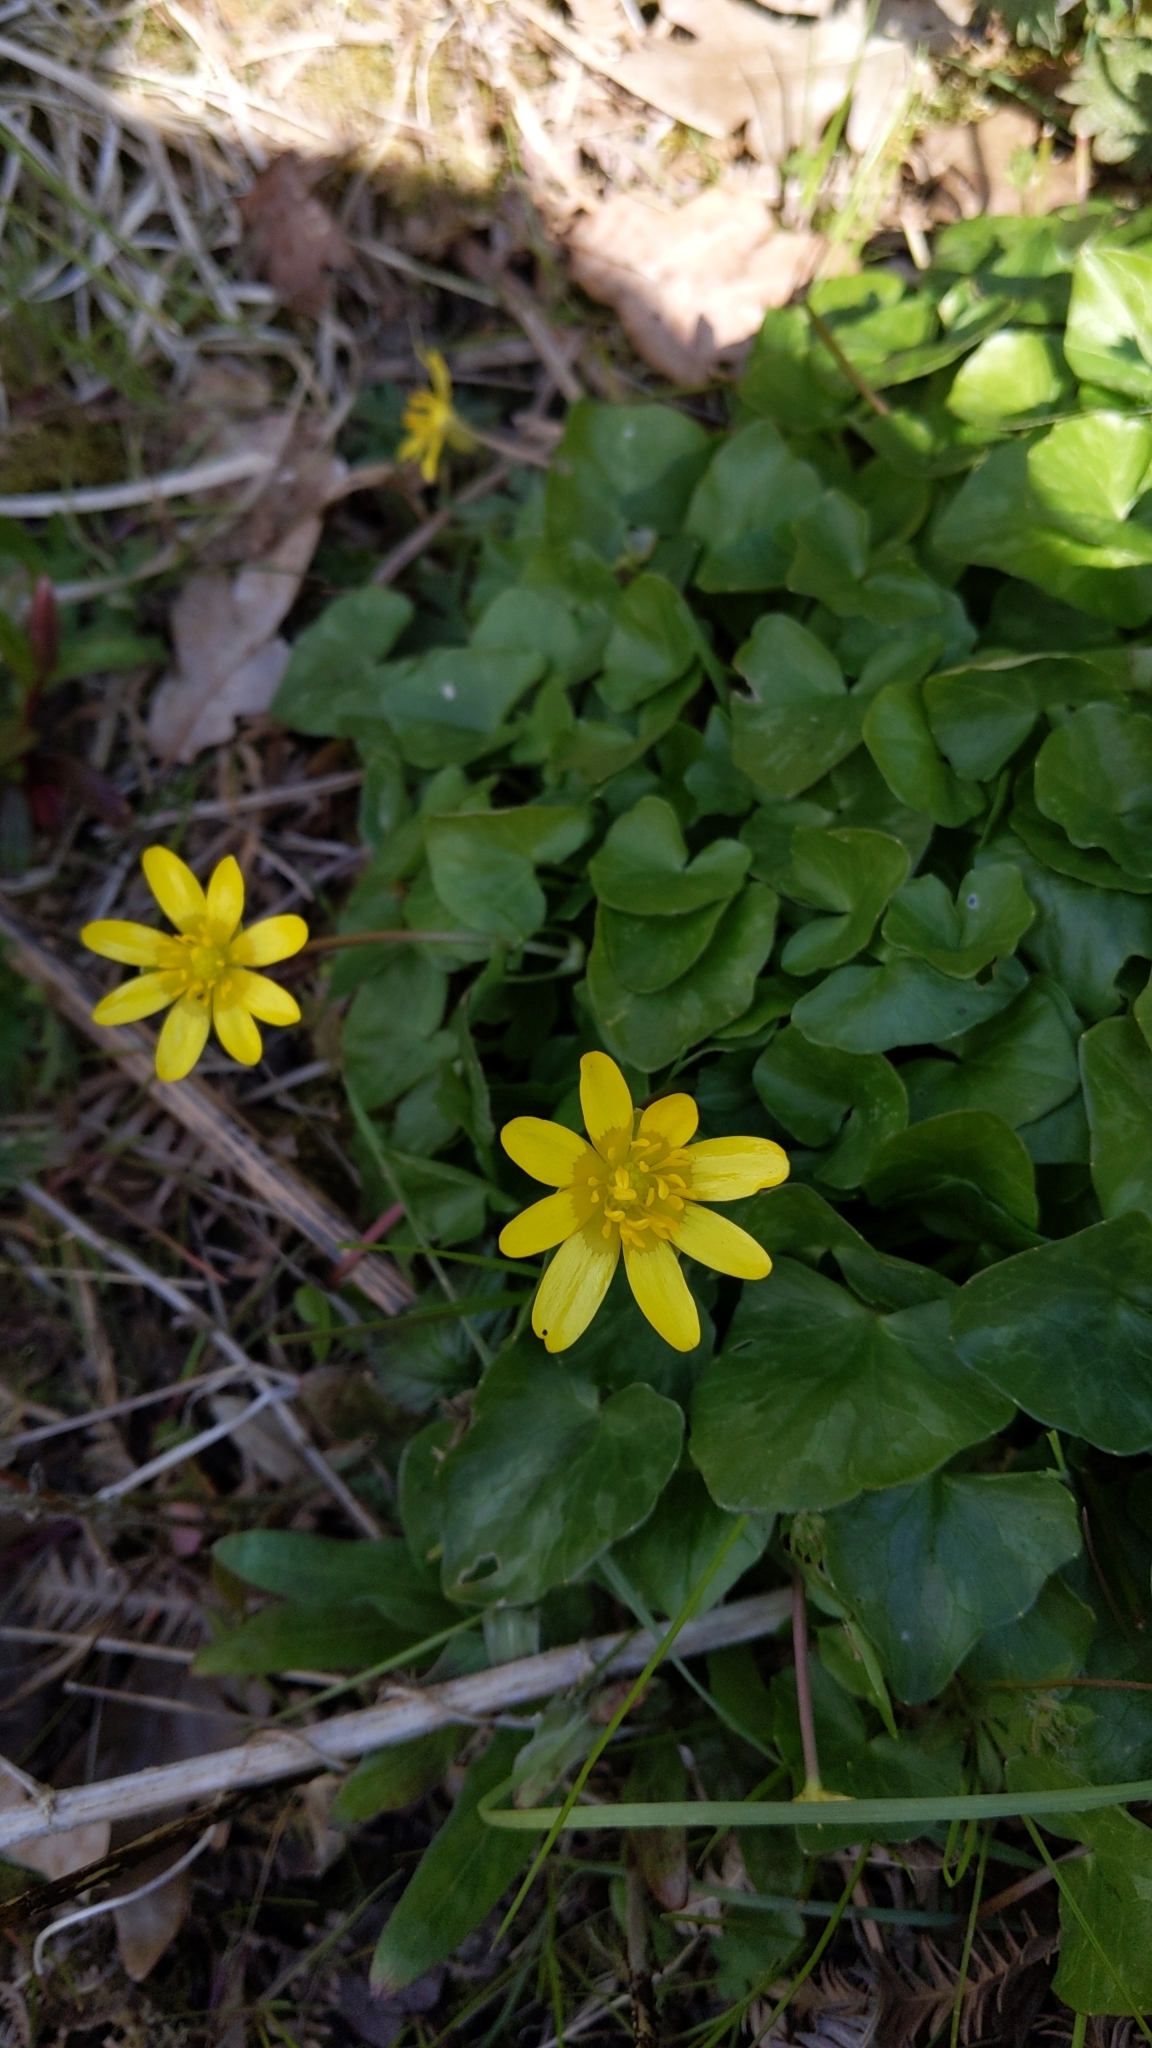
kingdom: Plantae
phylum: Tracheophyta
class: Magnoliopsida
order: Ranunculales
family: Ranunculaceae
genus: Ficaria
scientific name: Ficaria verna
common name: Lesser celandine
